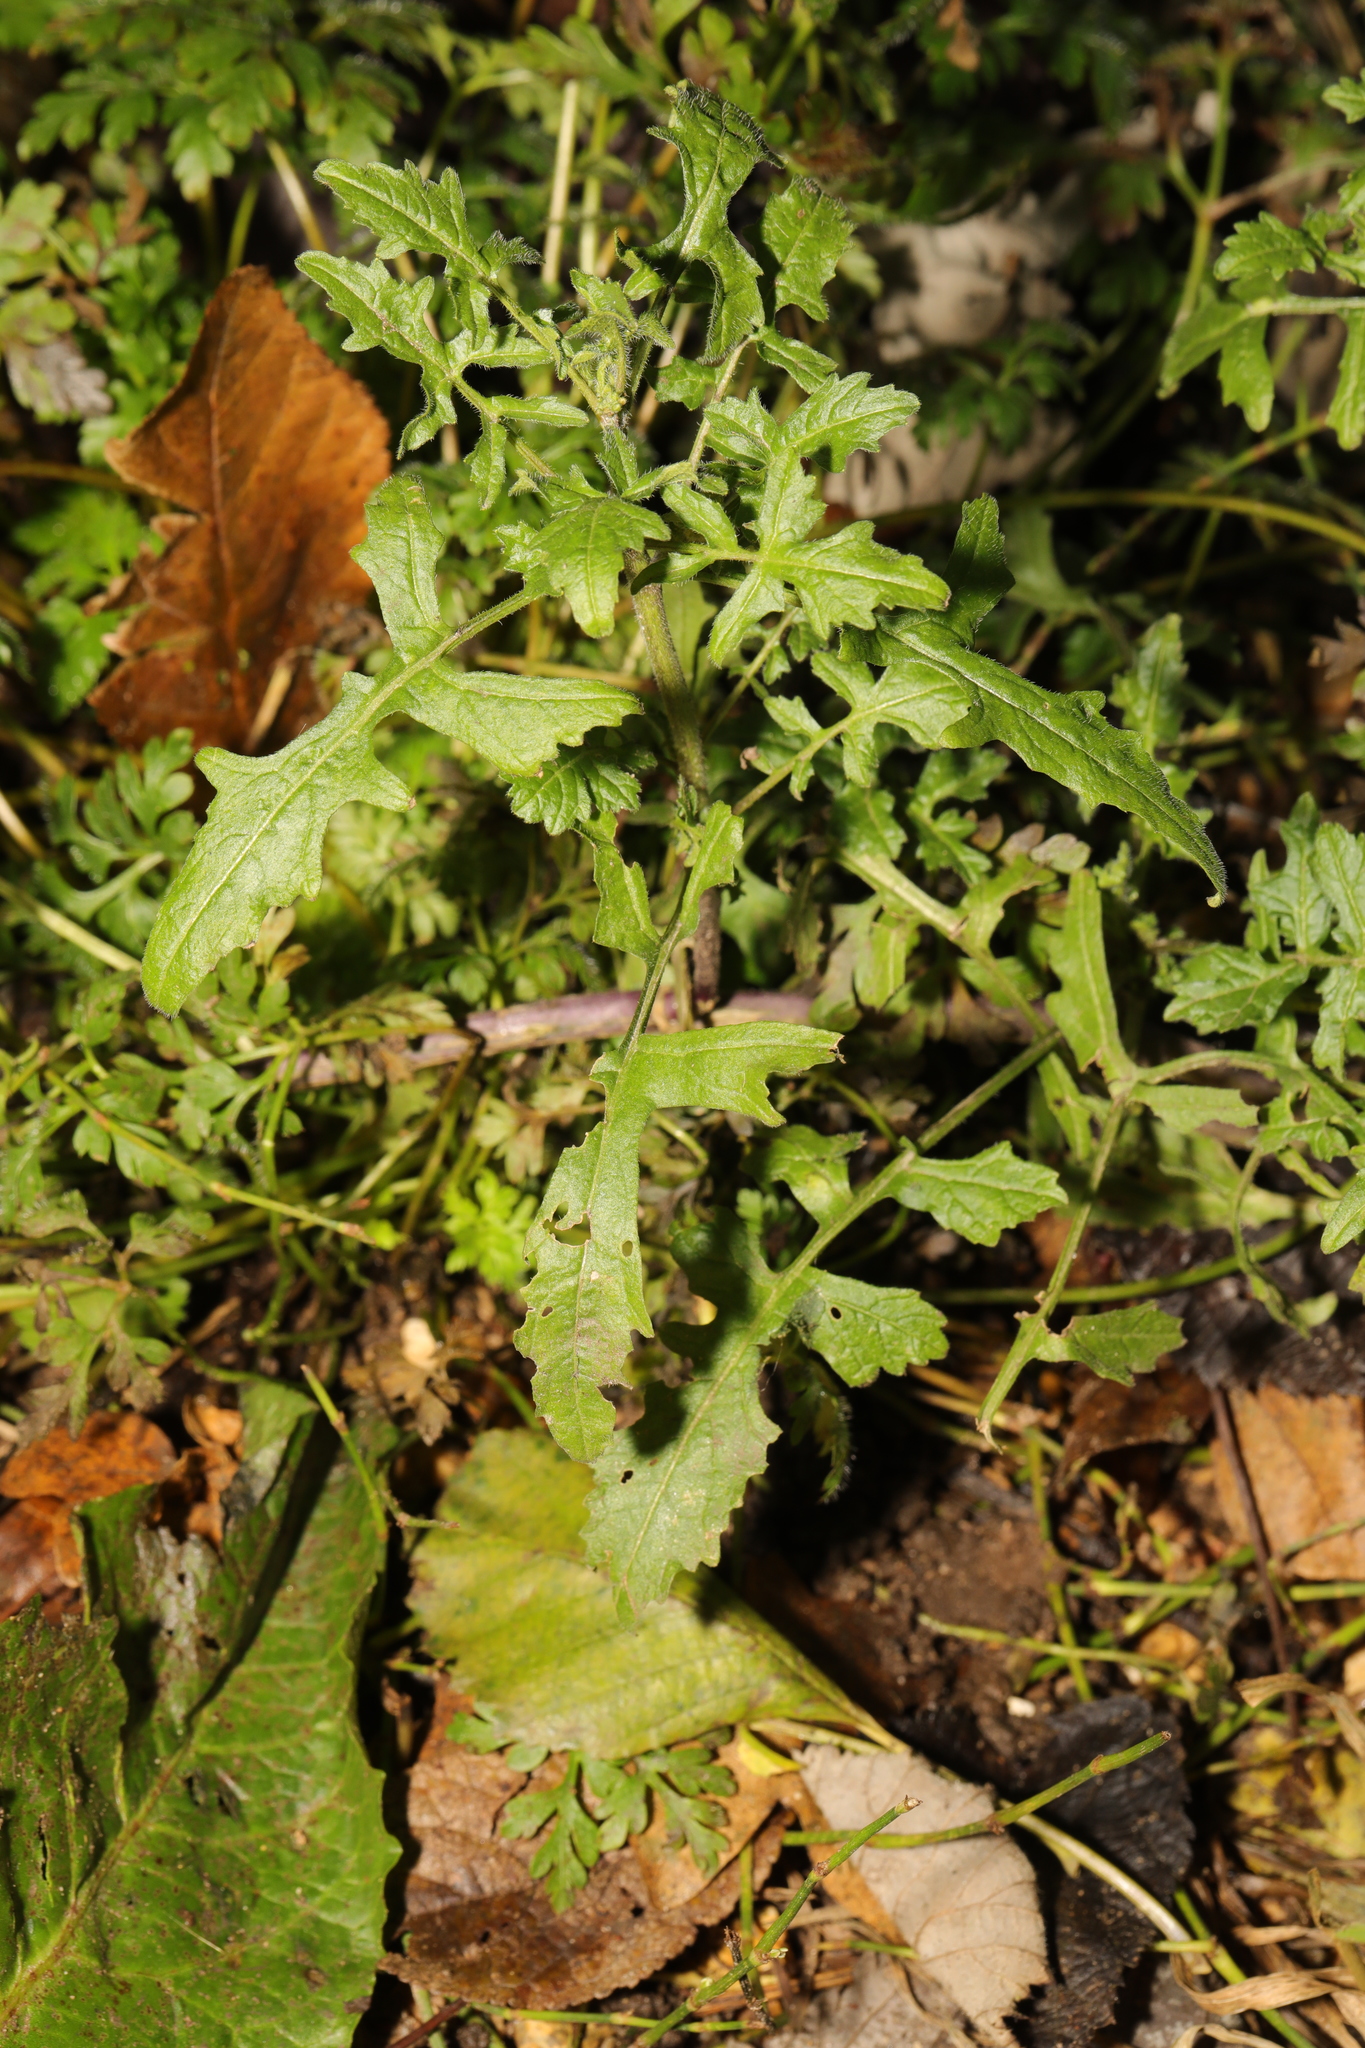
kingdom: Plantae
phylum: Tracheophyta
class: Magnoliopsida
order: Brassicales
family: Brassicaceae
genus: Sisymbrium
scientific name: Sisymbrium officinale
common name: Hedge mustard
